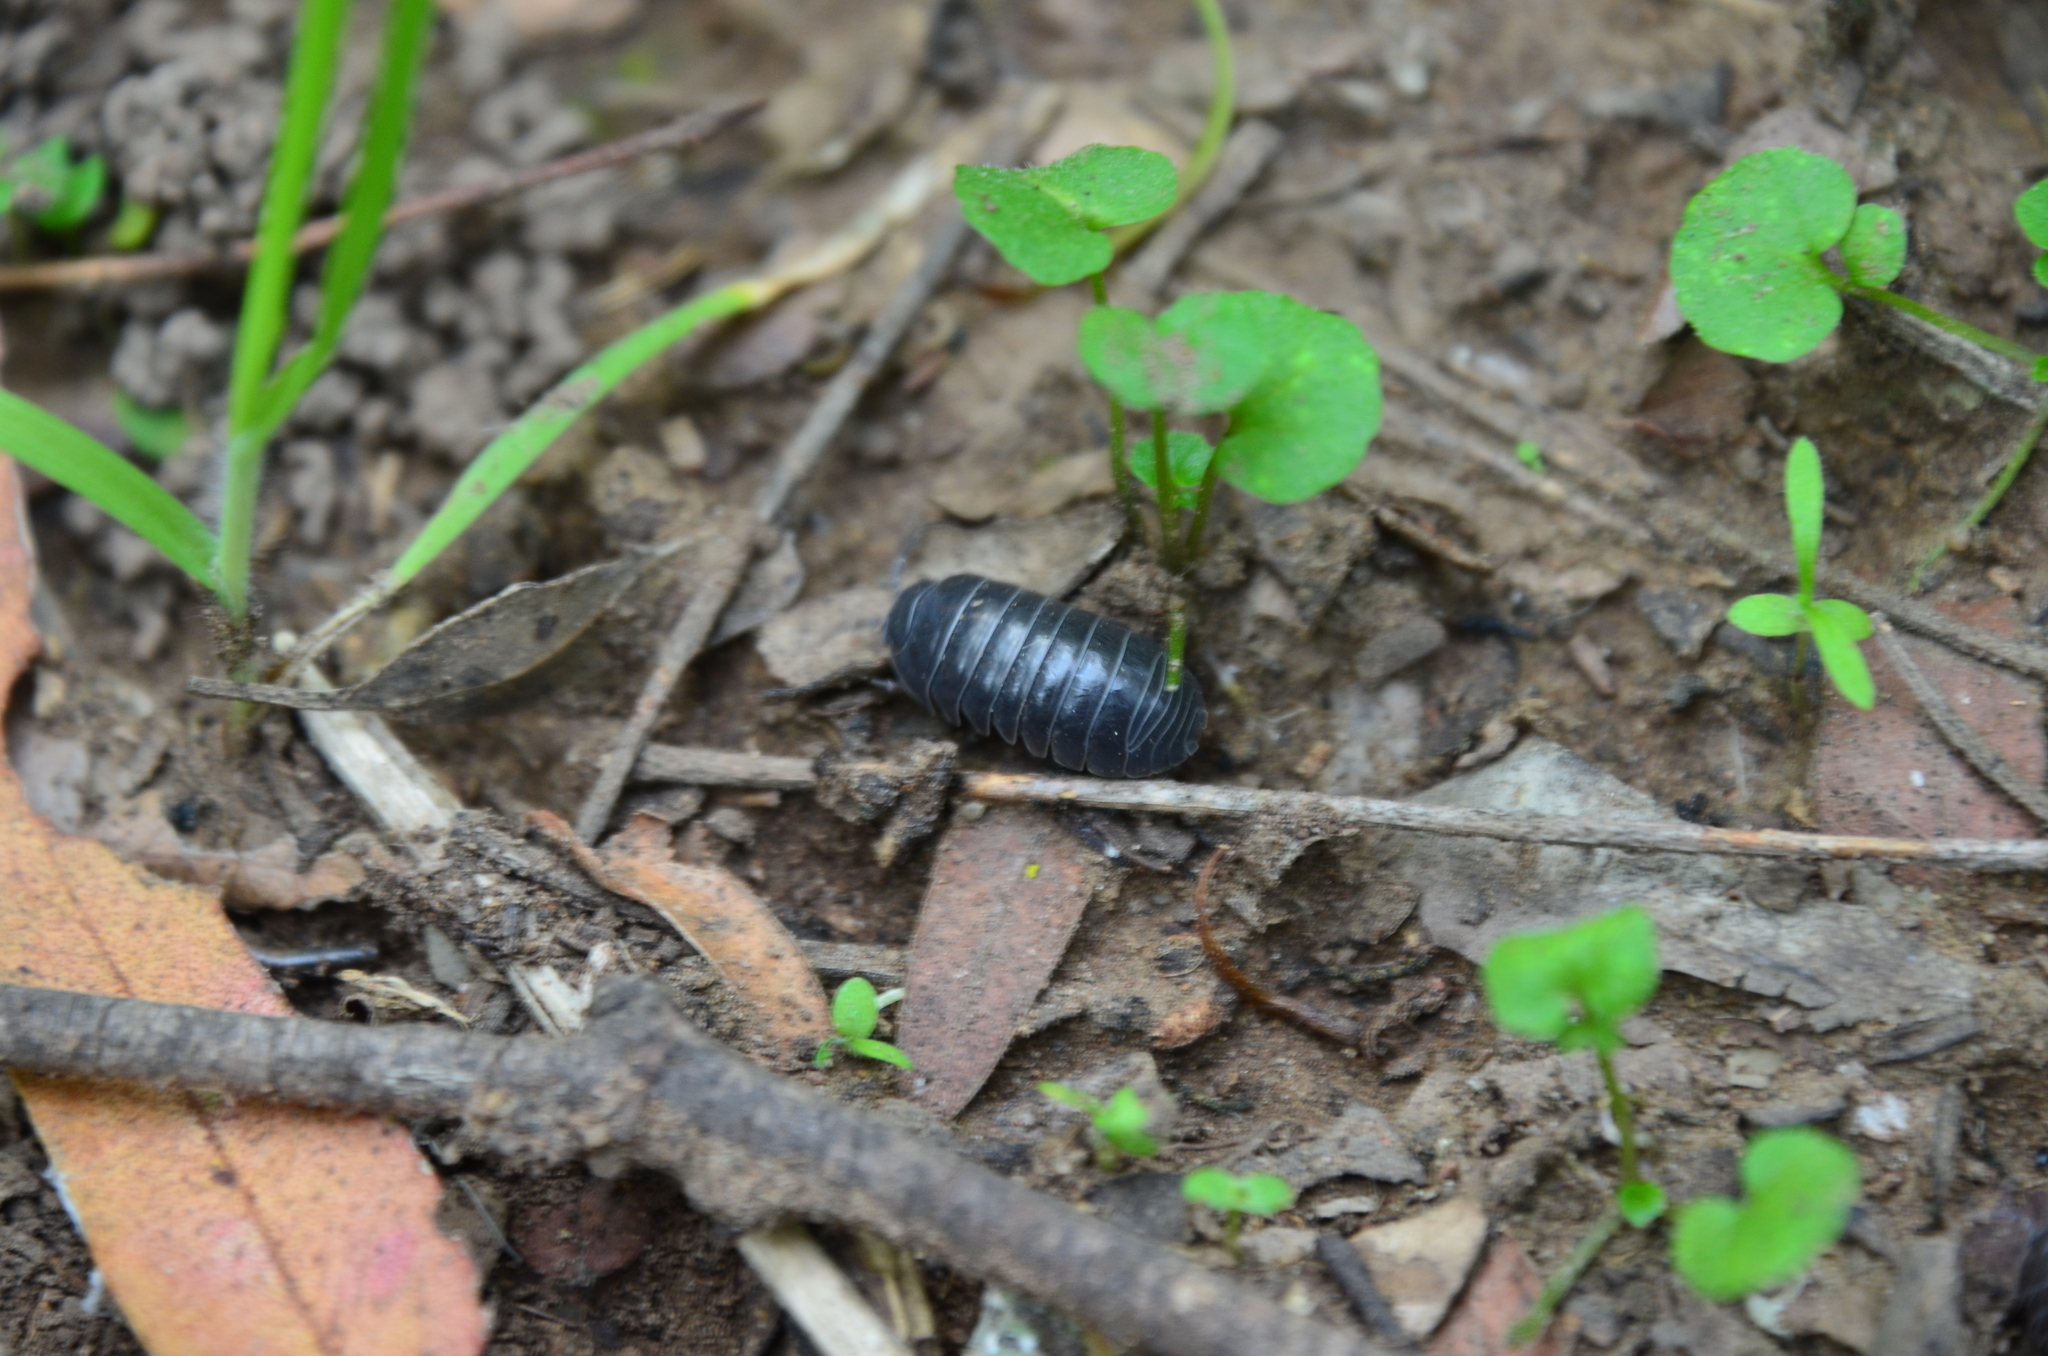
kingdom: Animalia
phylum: Arthropoda
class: Malacostraca
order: Isopoda
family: Armadillidiidae
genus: Armadillidium
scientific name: Armadillidium vulgare
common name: Common pill woodlouse
